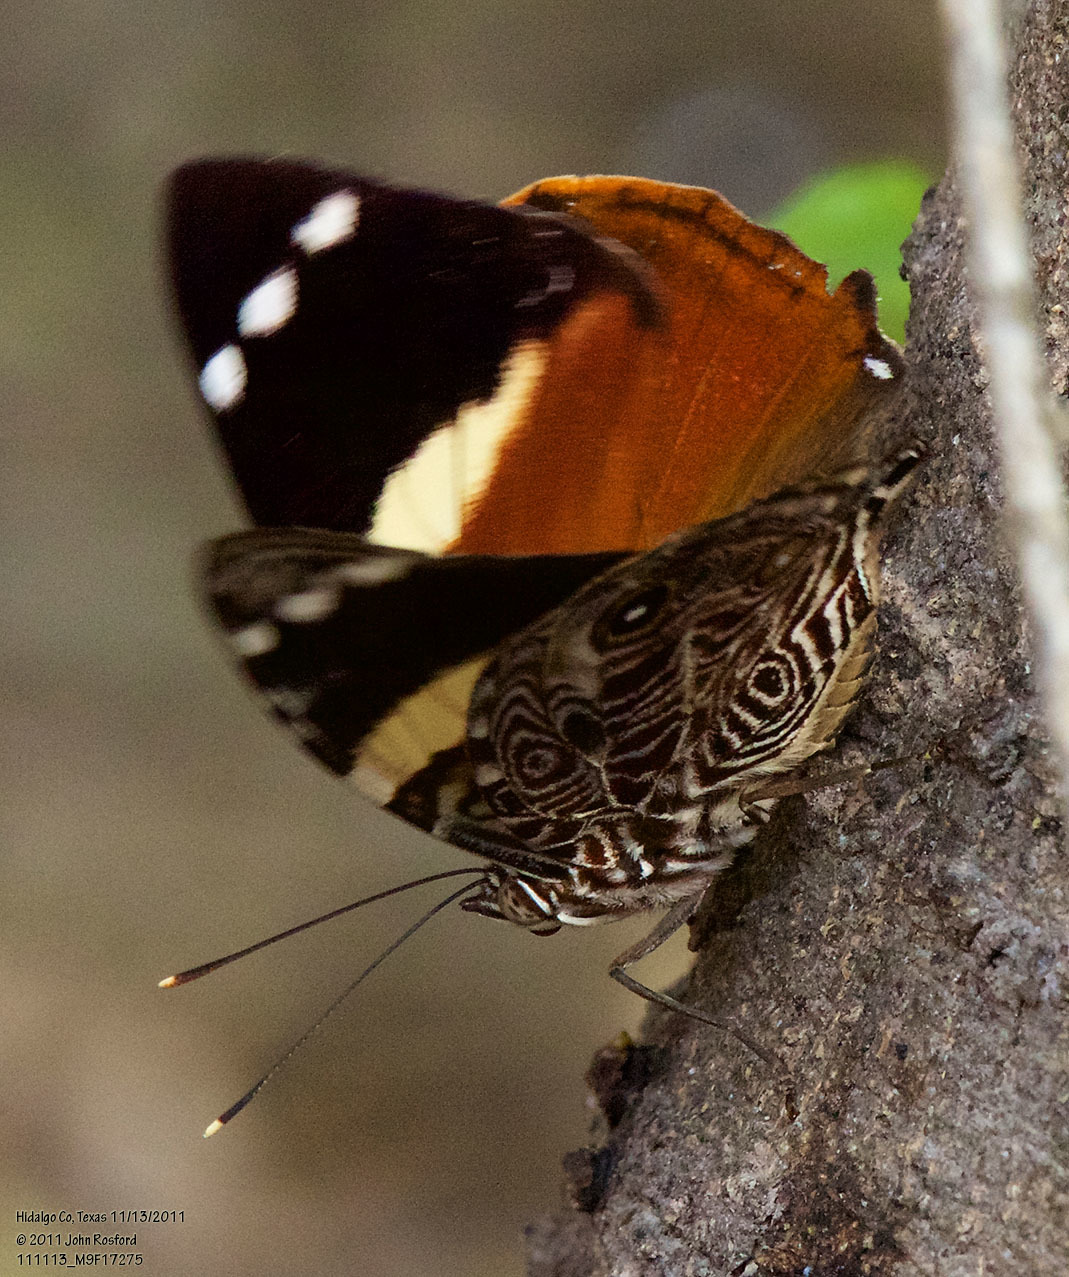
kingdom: Animalia
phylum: Arthropoda
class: Insecta
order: Lepidoptera
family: Nymphalidae
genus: Smyrna
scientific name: Smyrna blomfildia
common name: Blomfild's beauty
